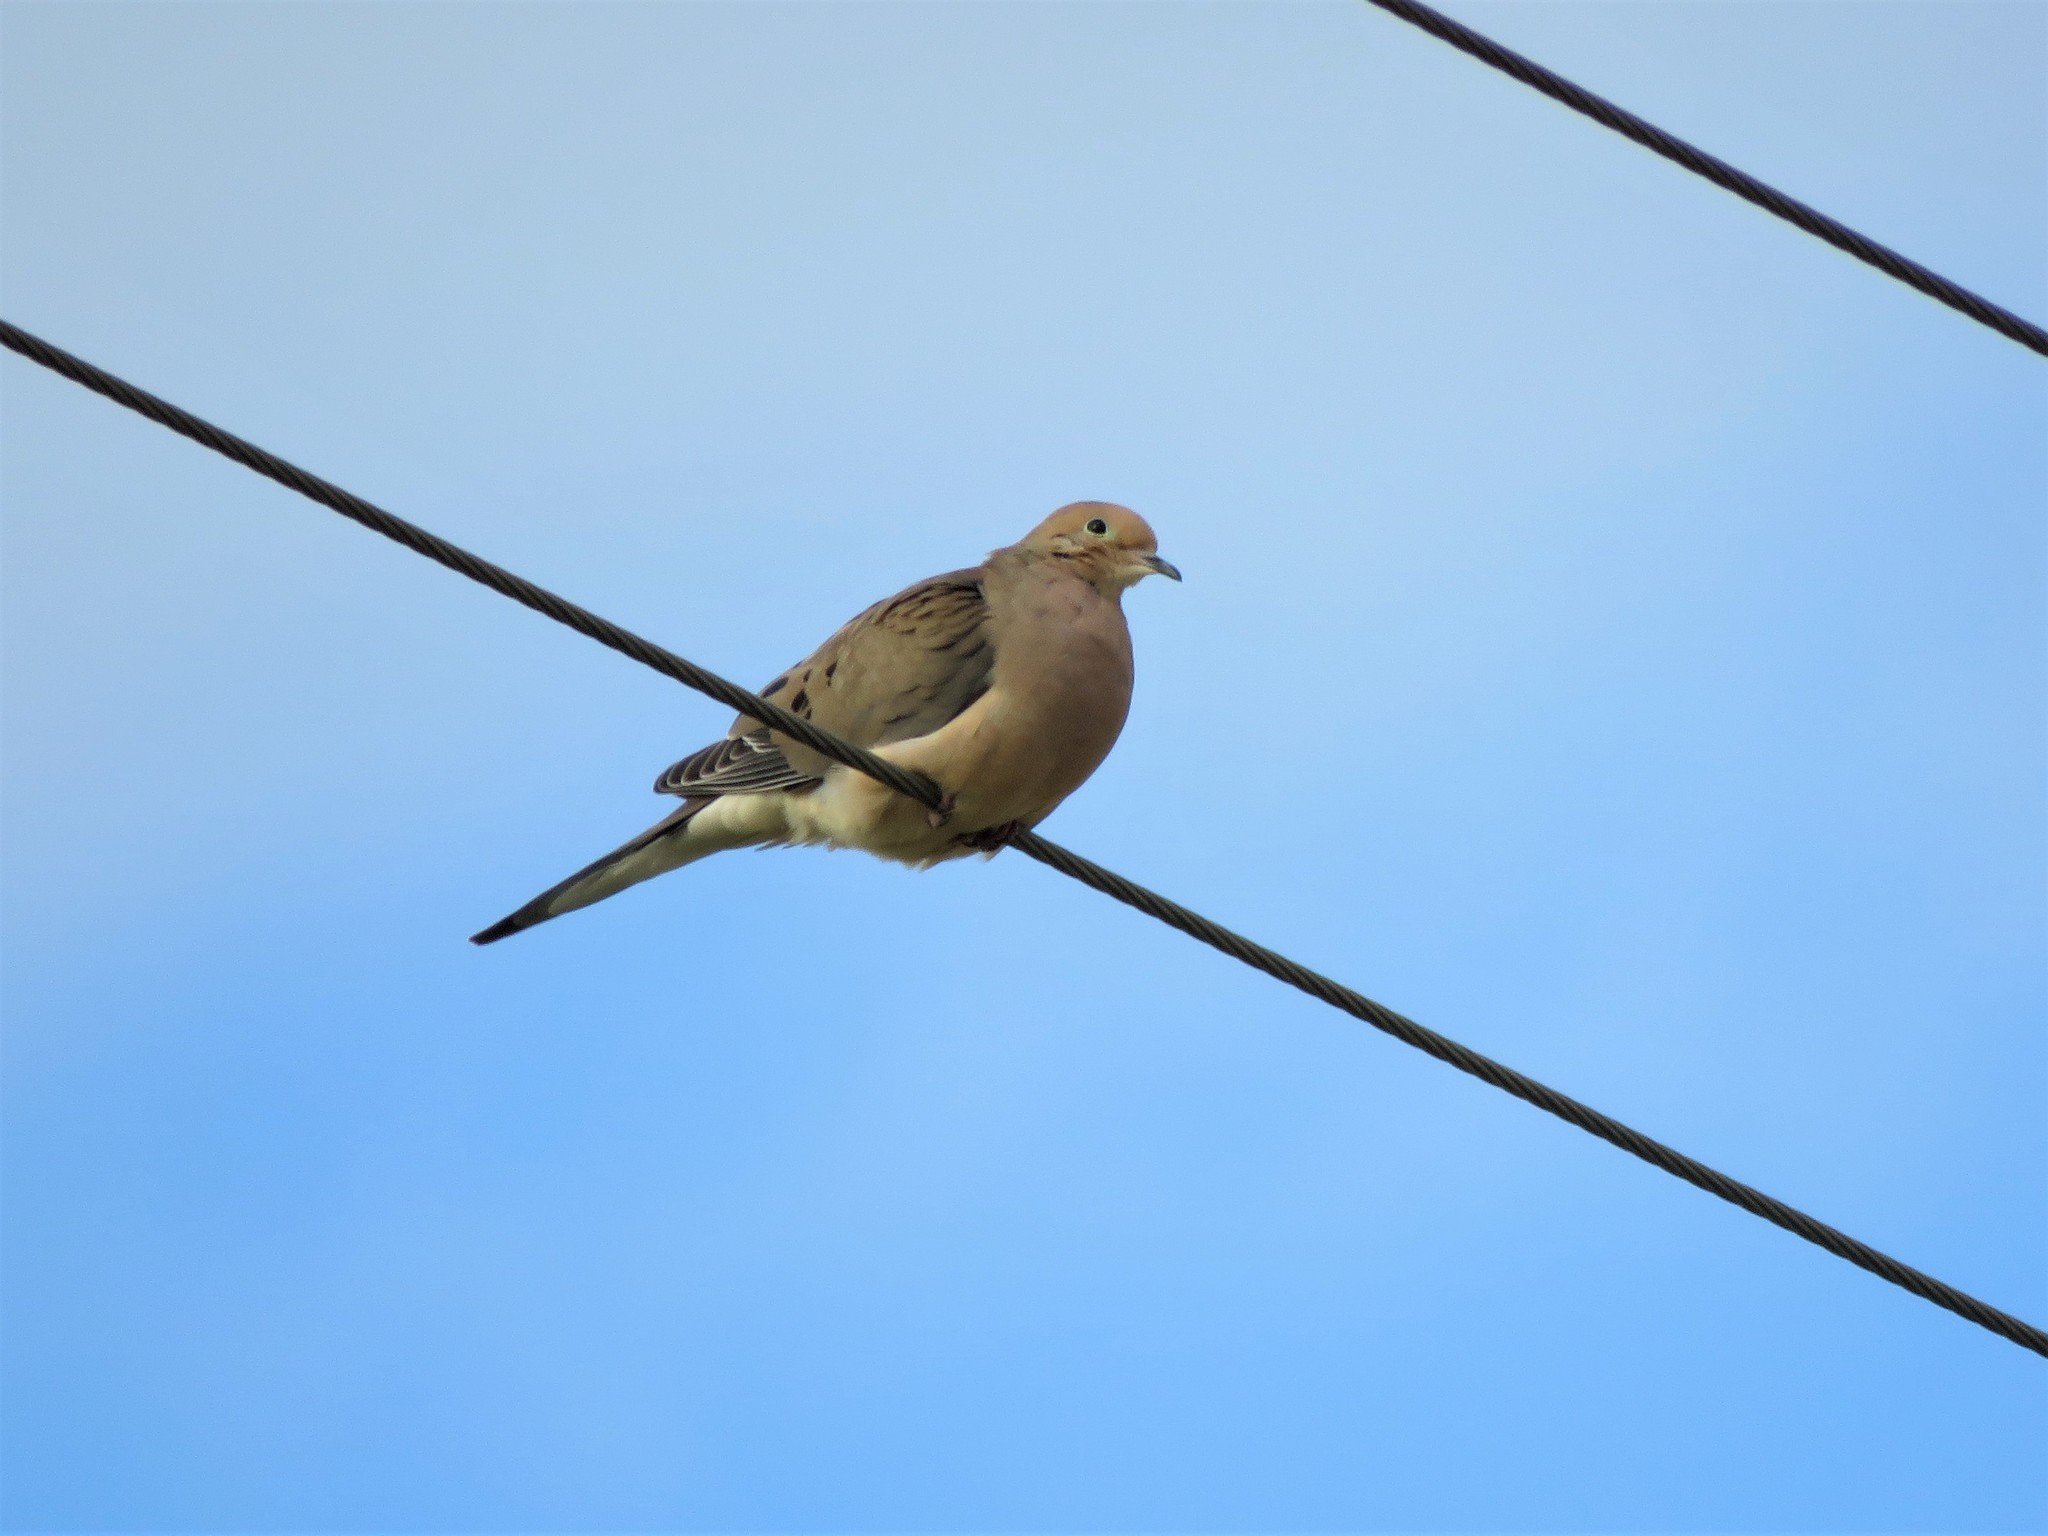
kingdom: Animalia
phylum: Chordata
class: Aves
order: Columbiformes
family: Columbidae
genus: Zenaida
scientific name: Zenaida macroura
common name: Mourning dove
